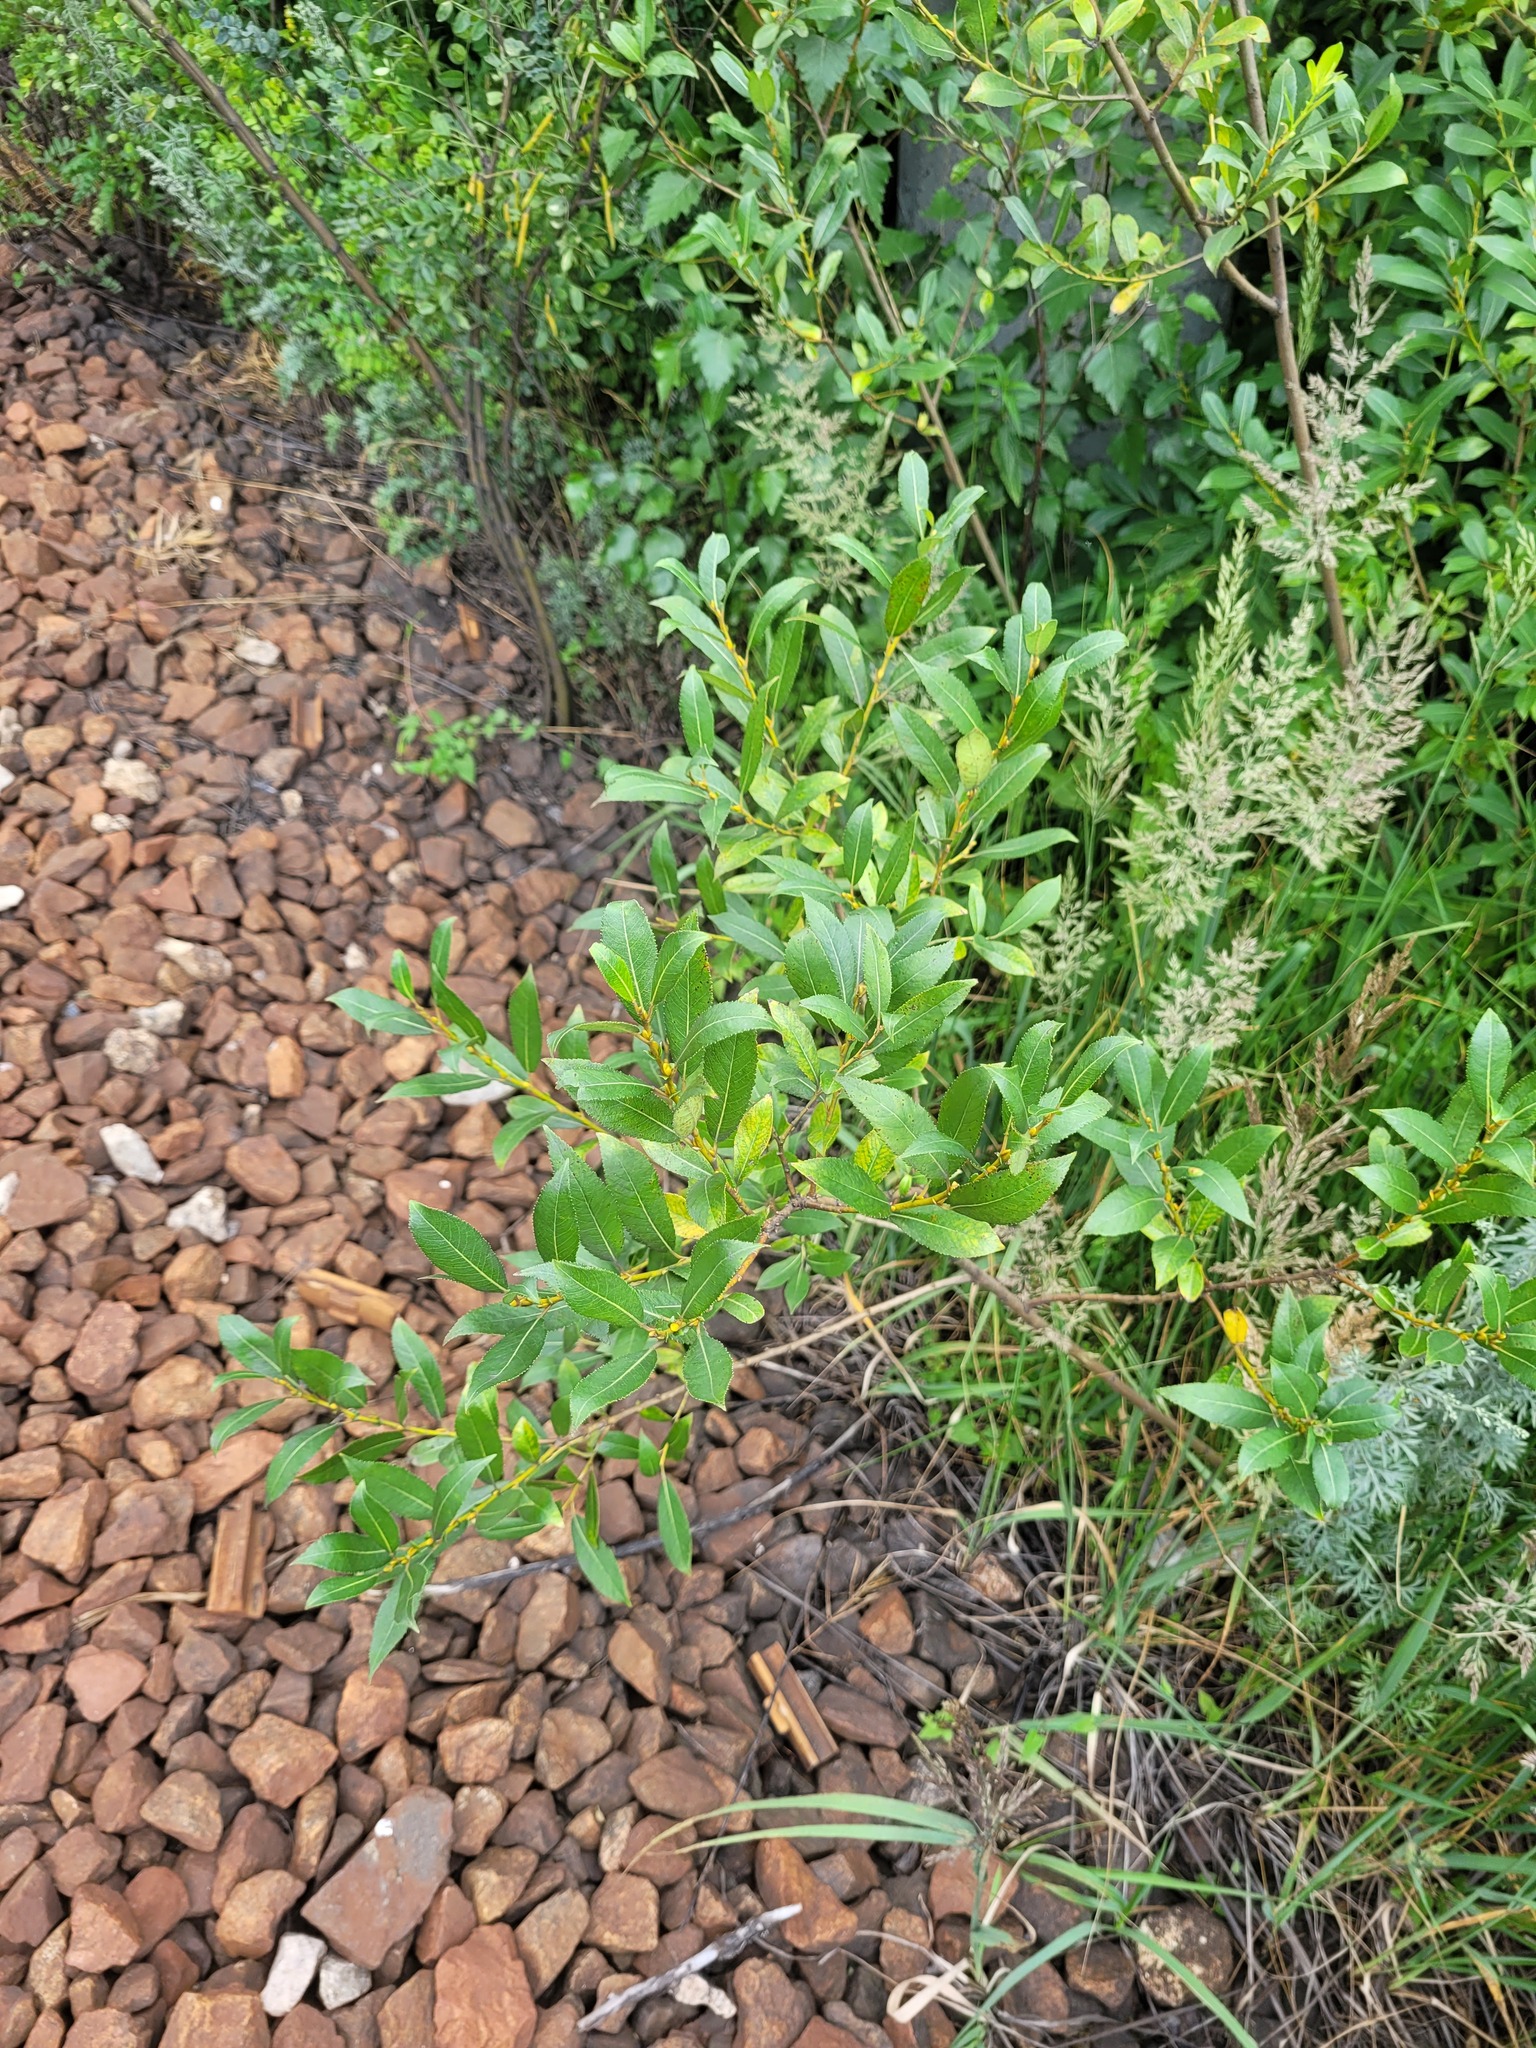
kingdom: Plantae
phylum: Tracheophyta
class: Magnoliopsida
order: Malpighiales
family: Salicaceae
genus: Salix
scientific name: Salix triandra
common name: Almond willow
